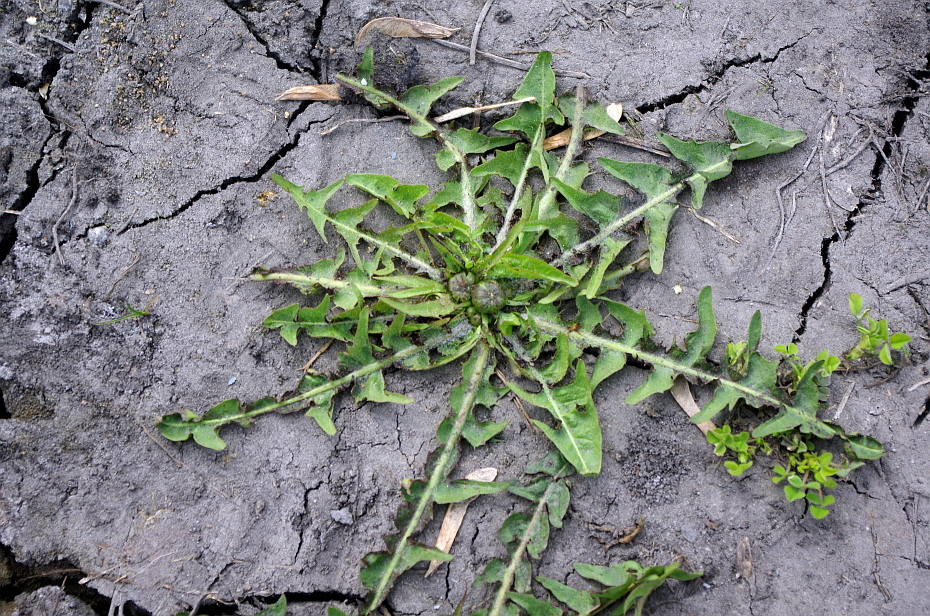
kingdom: Plantae
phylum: Tracheophyta
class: Magnoliopsida
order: Asterales
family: Asteraceae
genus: Taraxacum
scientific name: Taraxacum officinale
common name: Common dandelion
